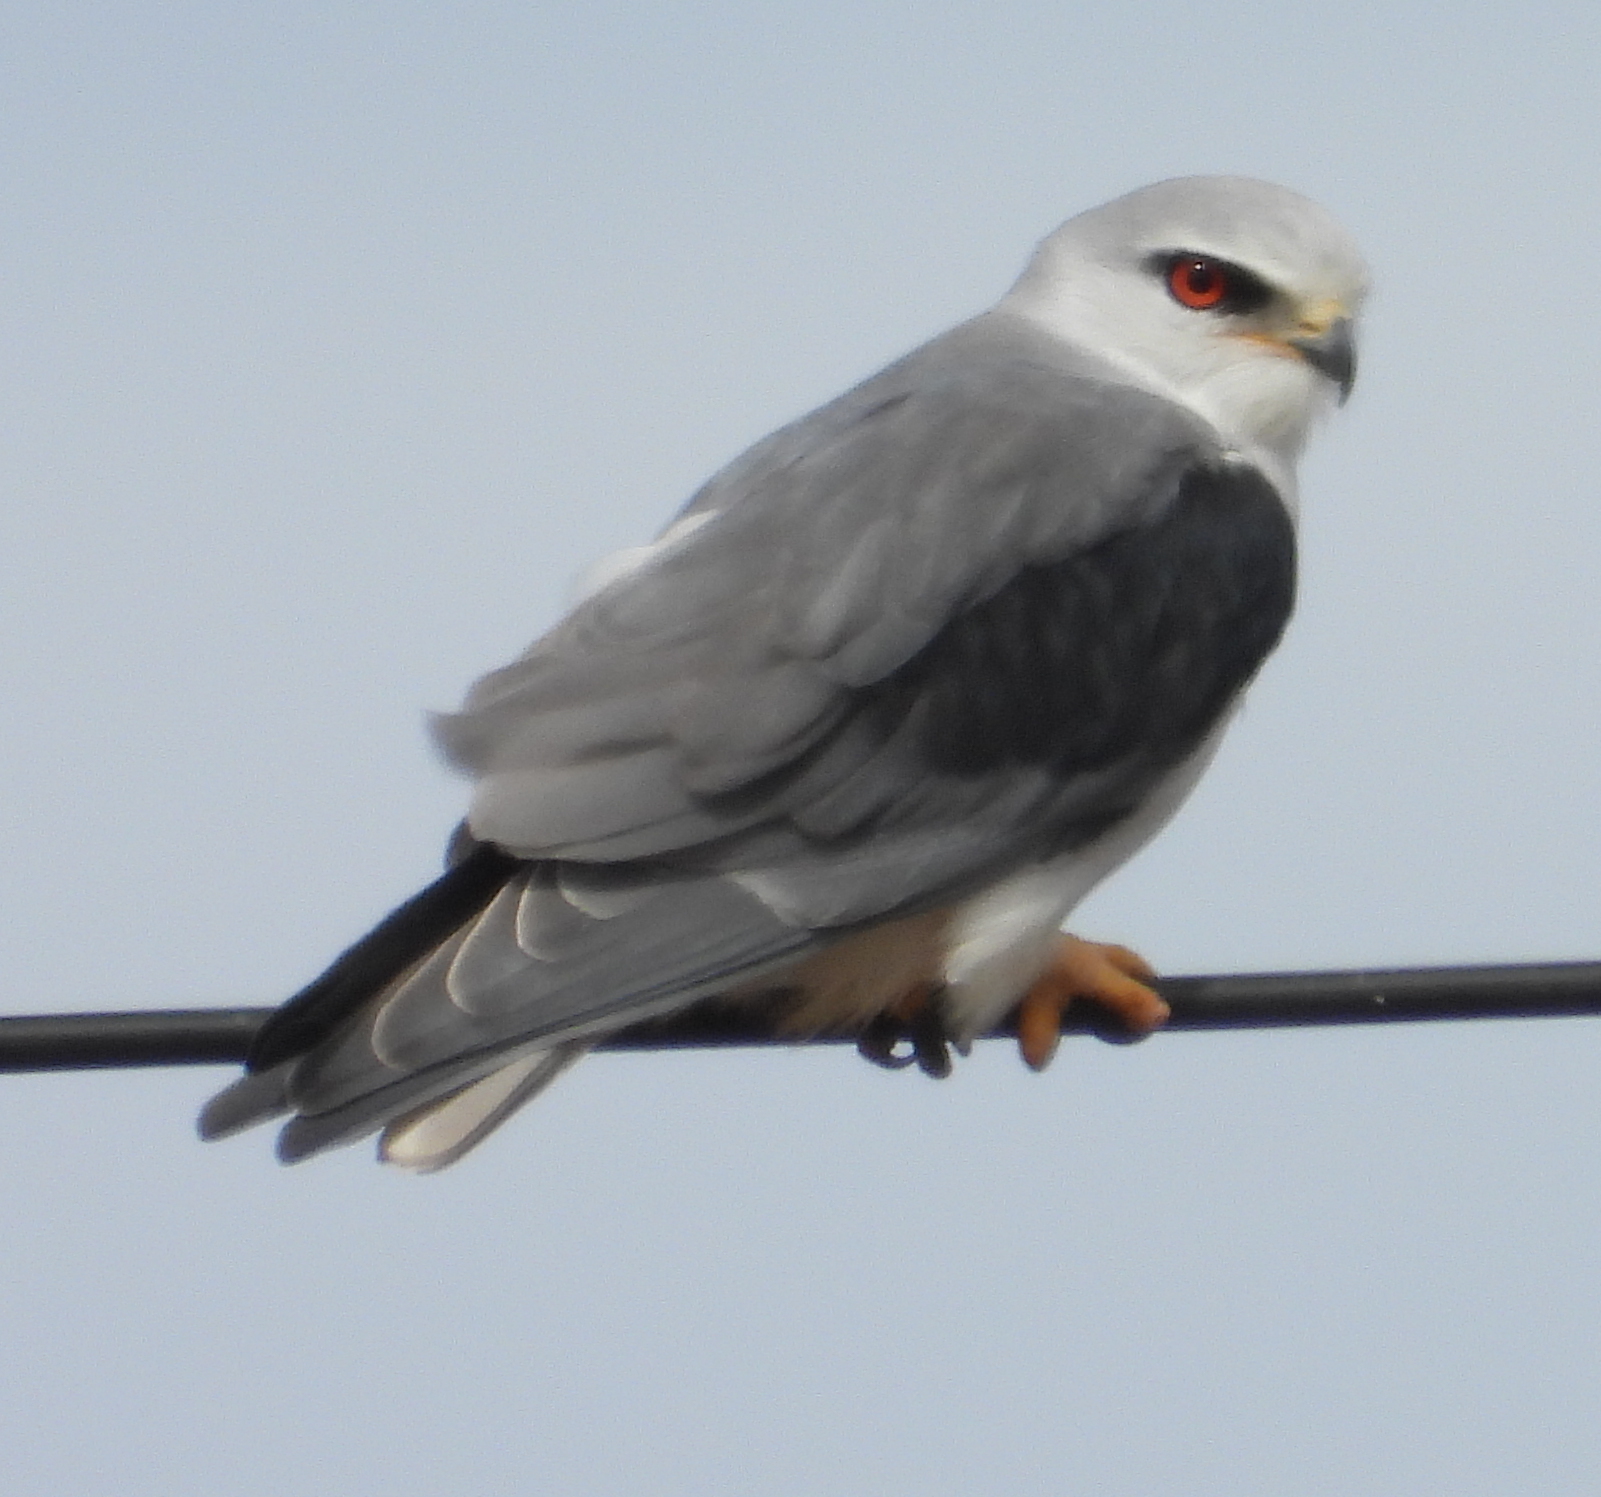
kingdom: Animalia
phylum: Chordata
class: Aves
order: Accipitriformes
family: Accipitridae
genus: Elanus
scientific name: Elanus caeruleus
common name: Black-winged kite
